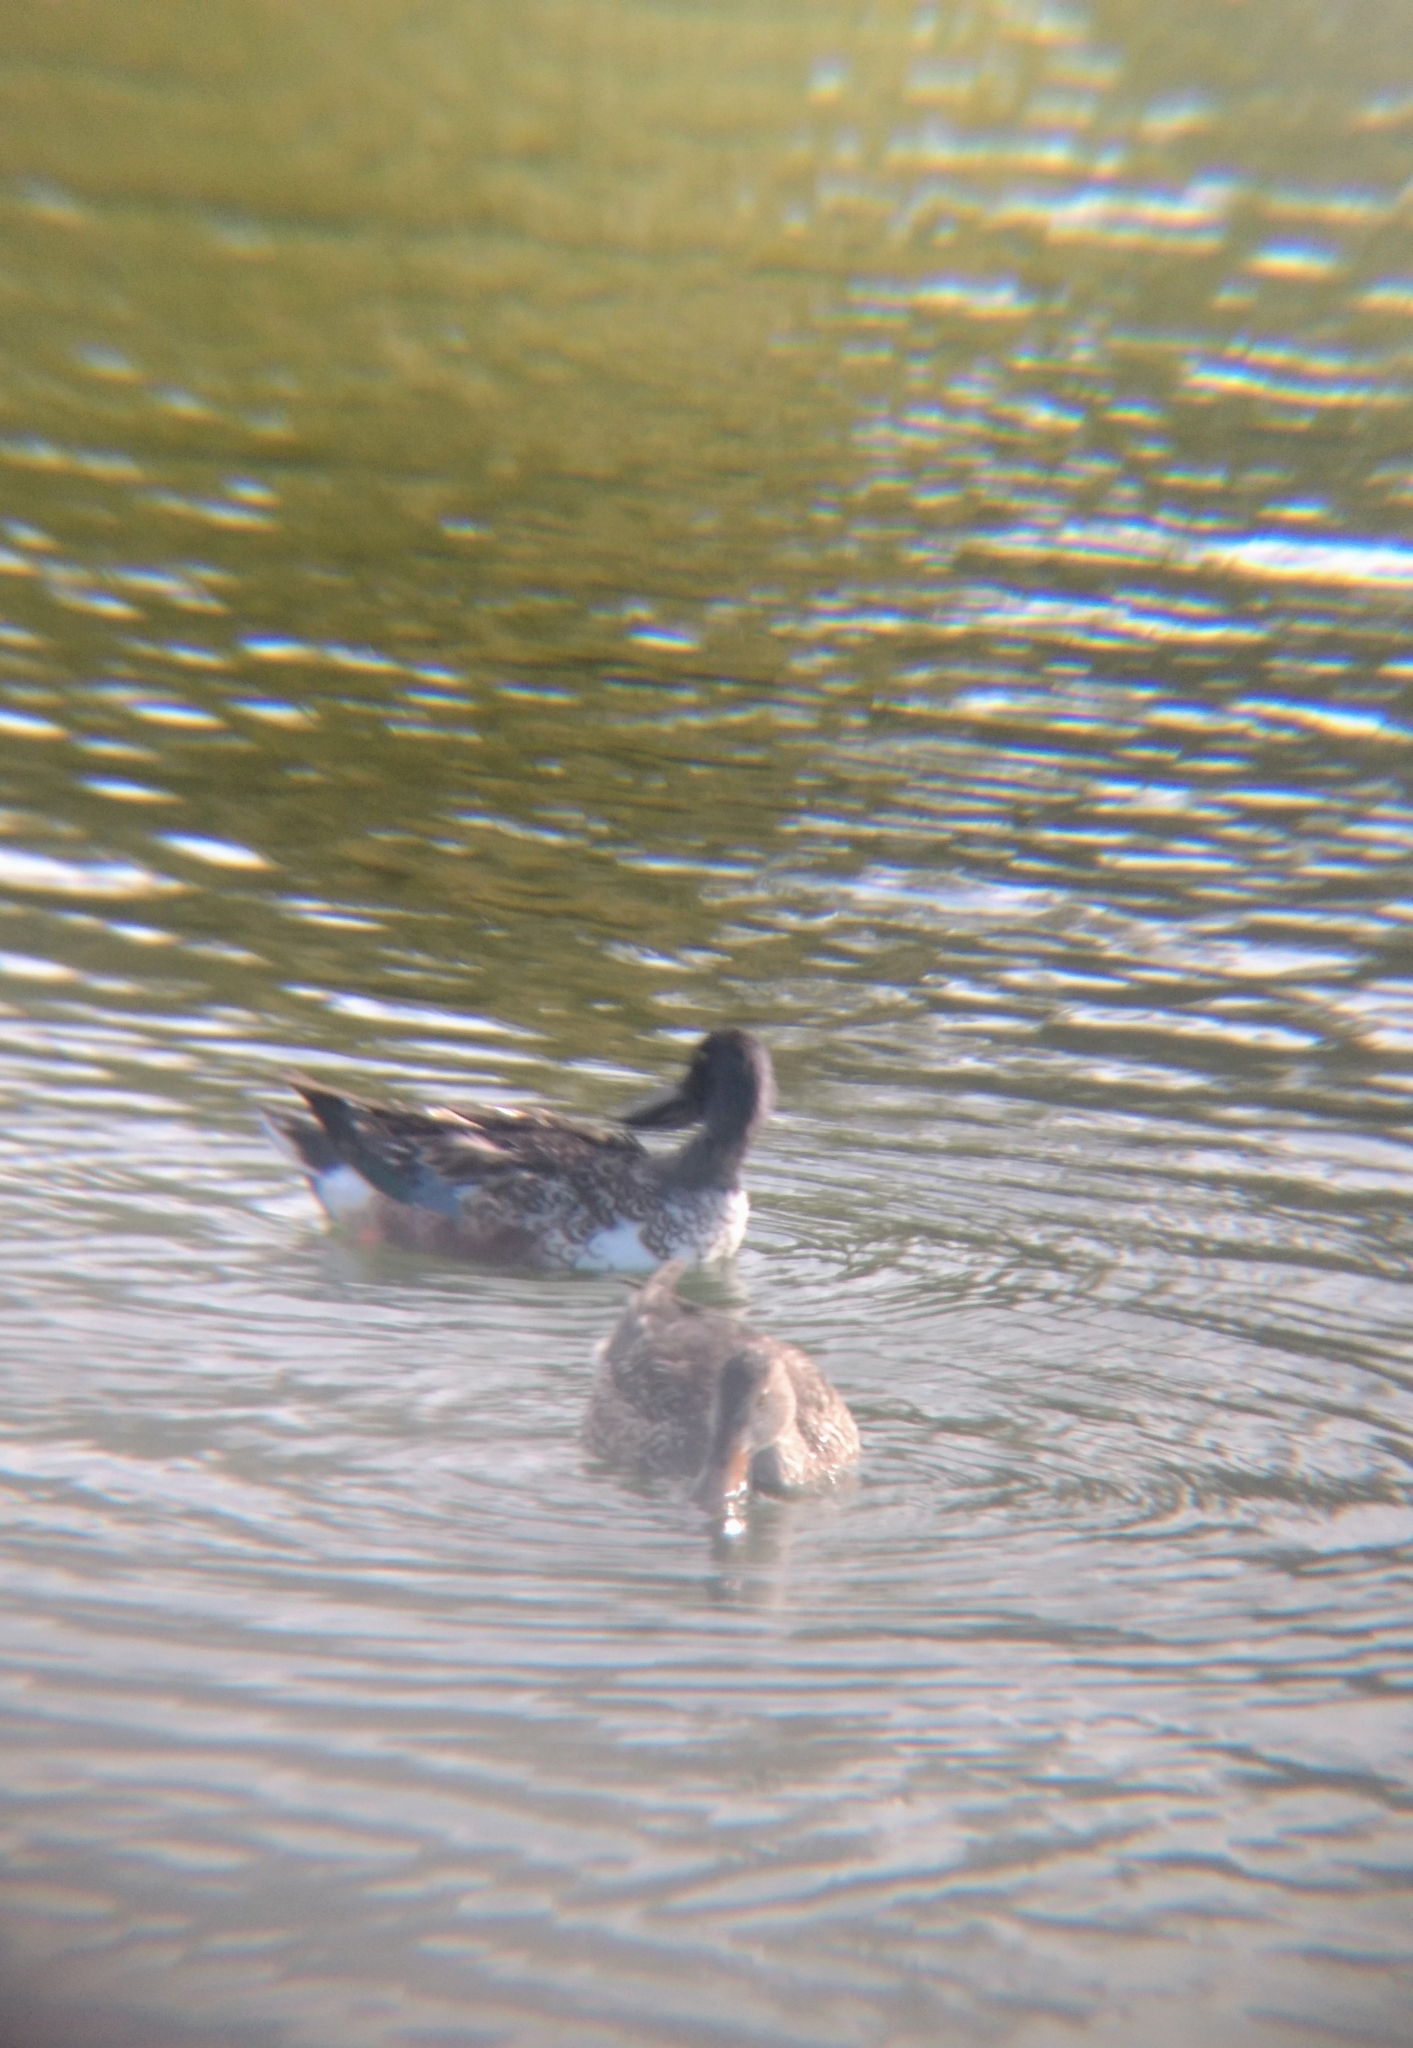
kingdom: Animalia
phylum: Chordata
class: Aves
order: Anseriformes
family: Anatidae
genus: Spatula
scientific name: Spatula clypeata
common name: Northern shoveler
